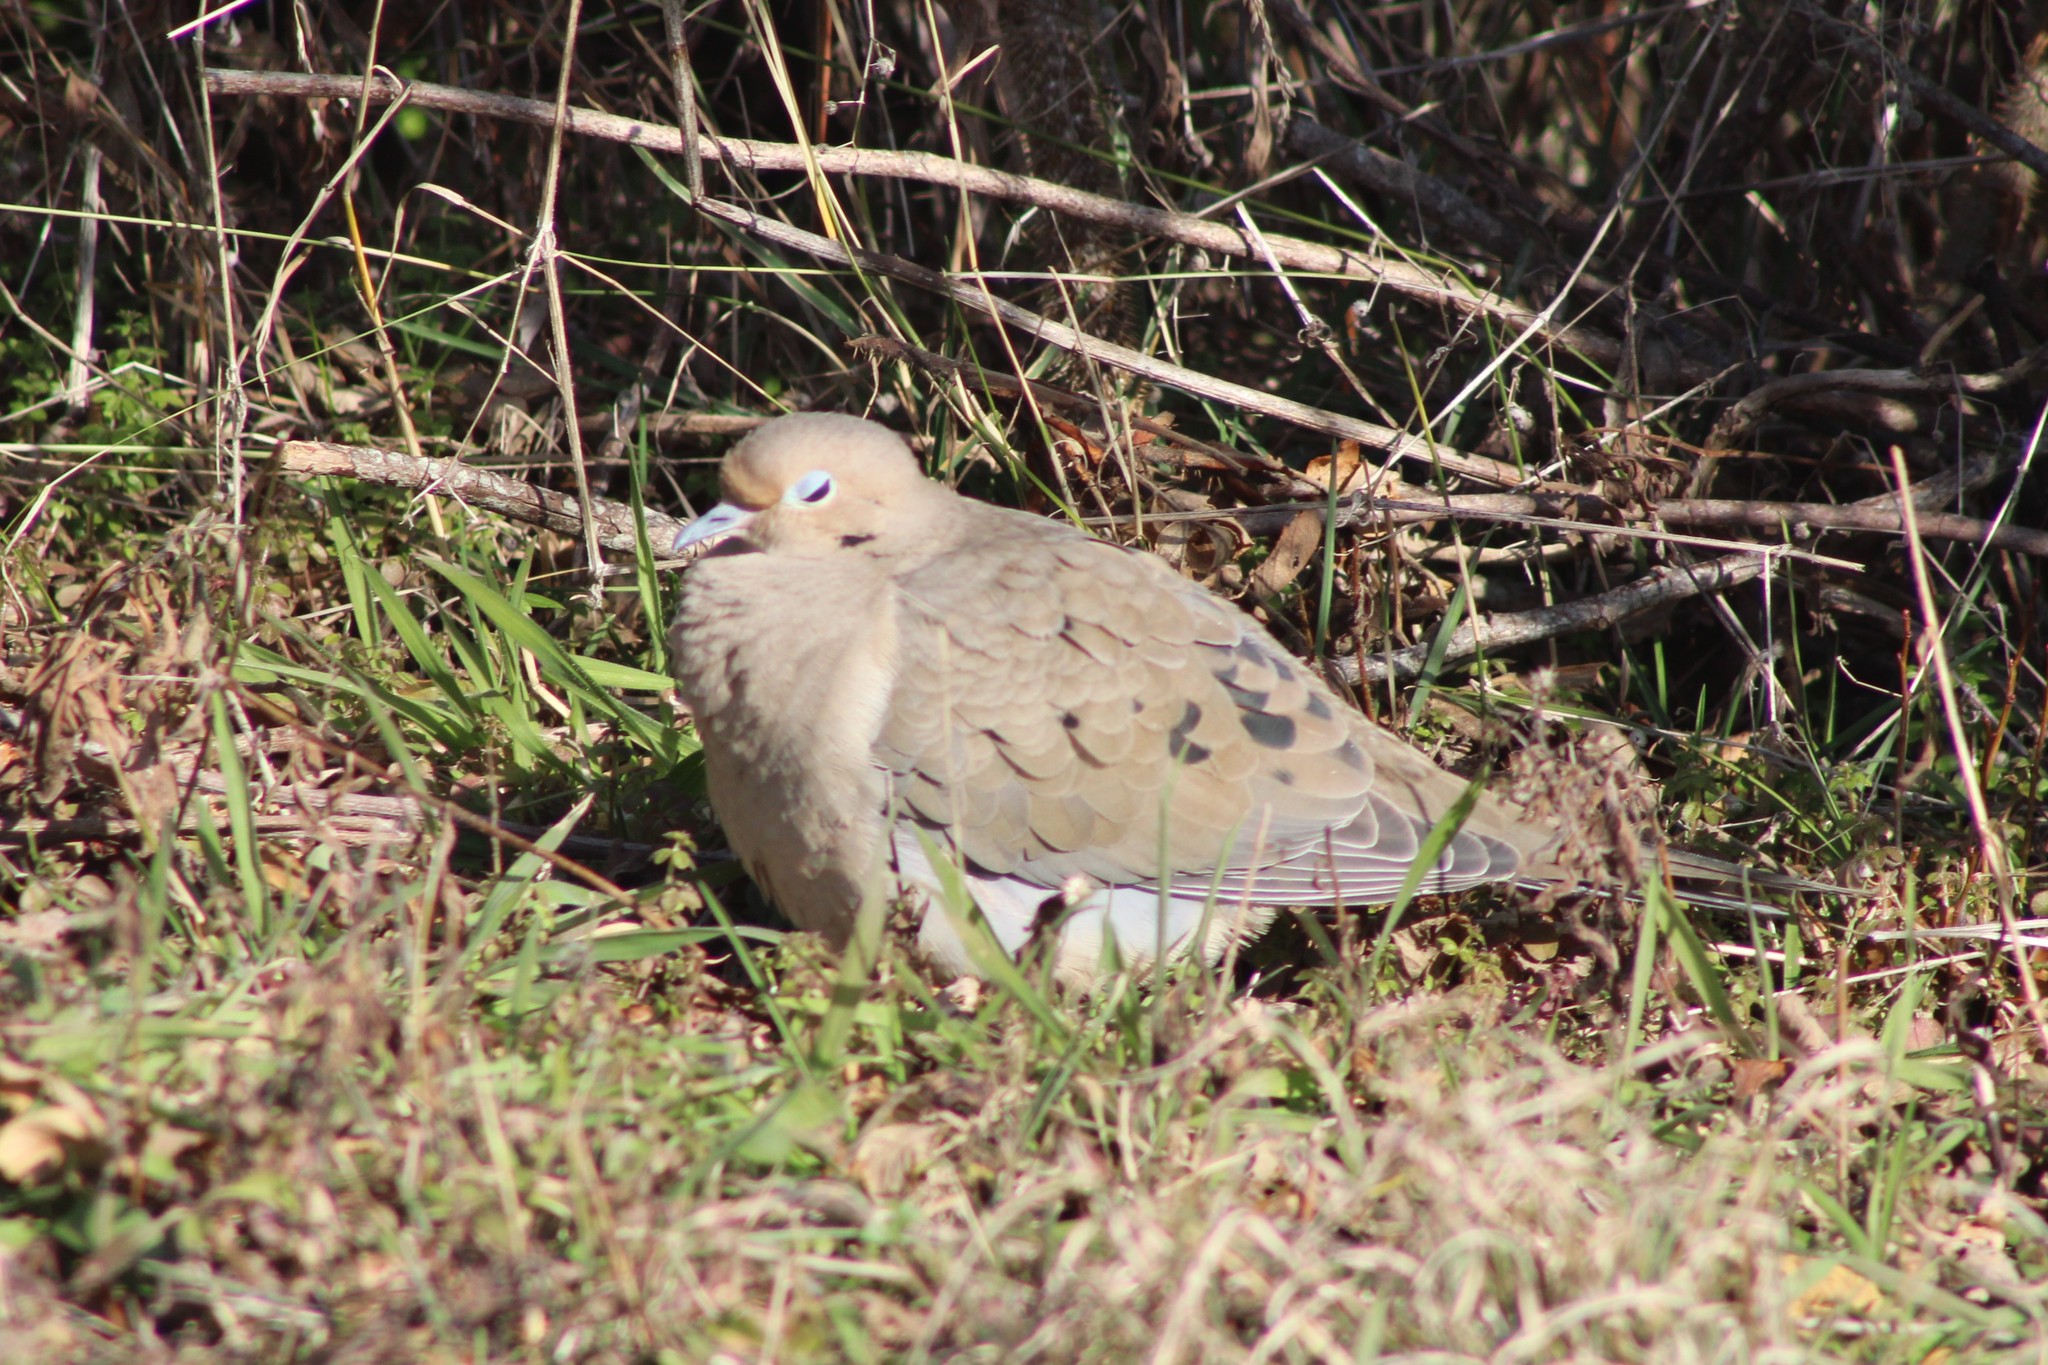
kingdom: Animalia
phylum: Chordata
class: Aves
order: Columbiformes
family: Columbidae
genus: Zenaida
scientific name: Zenaida macroura
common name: Mourning dove
